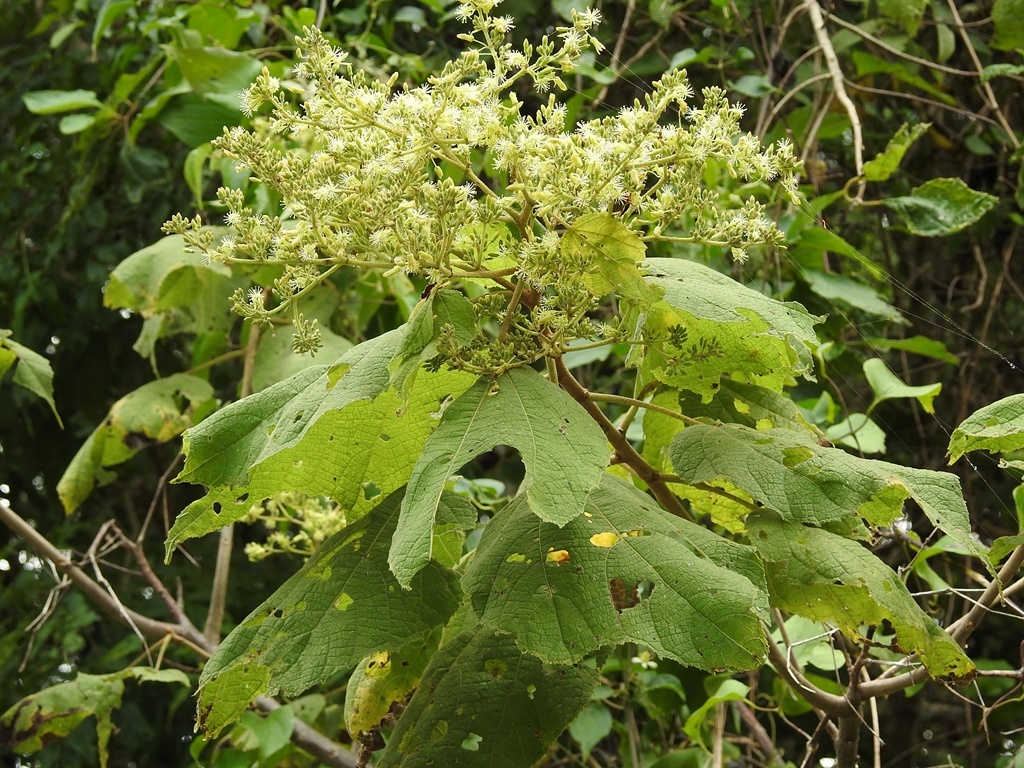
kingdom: Plantae
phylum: Tracheophyta
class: Magnoliopsida
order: Malvales
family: Malvaceae
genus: Heliocarpus
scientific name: Heliocarpus americanus
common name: White moho
